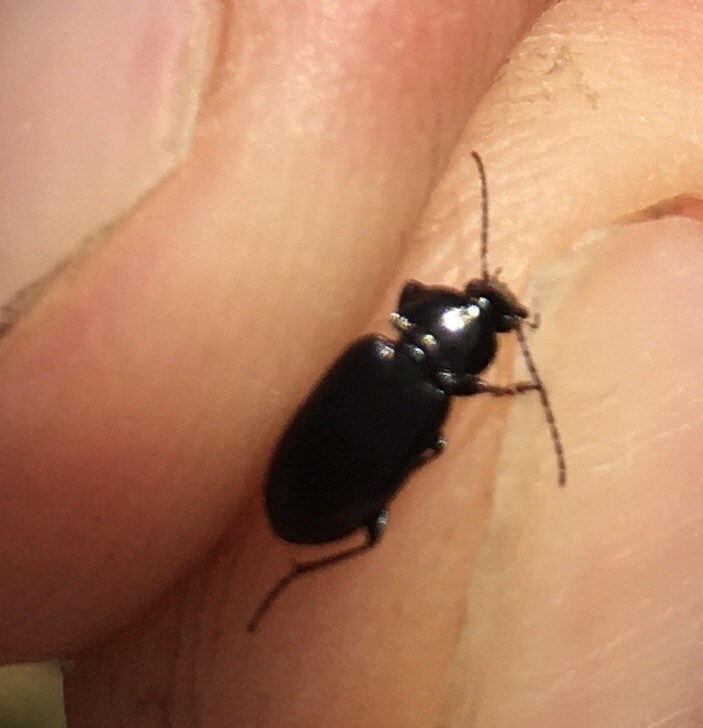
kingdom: Animalia
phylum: Arthropoda
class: Insecta
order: Coleoptera
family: Carabidae
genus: Pterostichus
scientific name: Pterostichus vernalis
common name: Spring harp ground beetle
